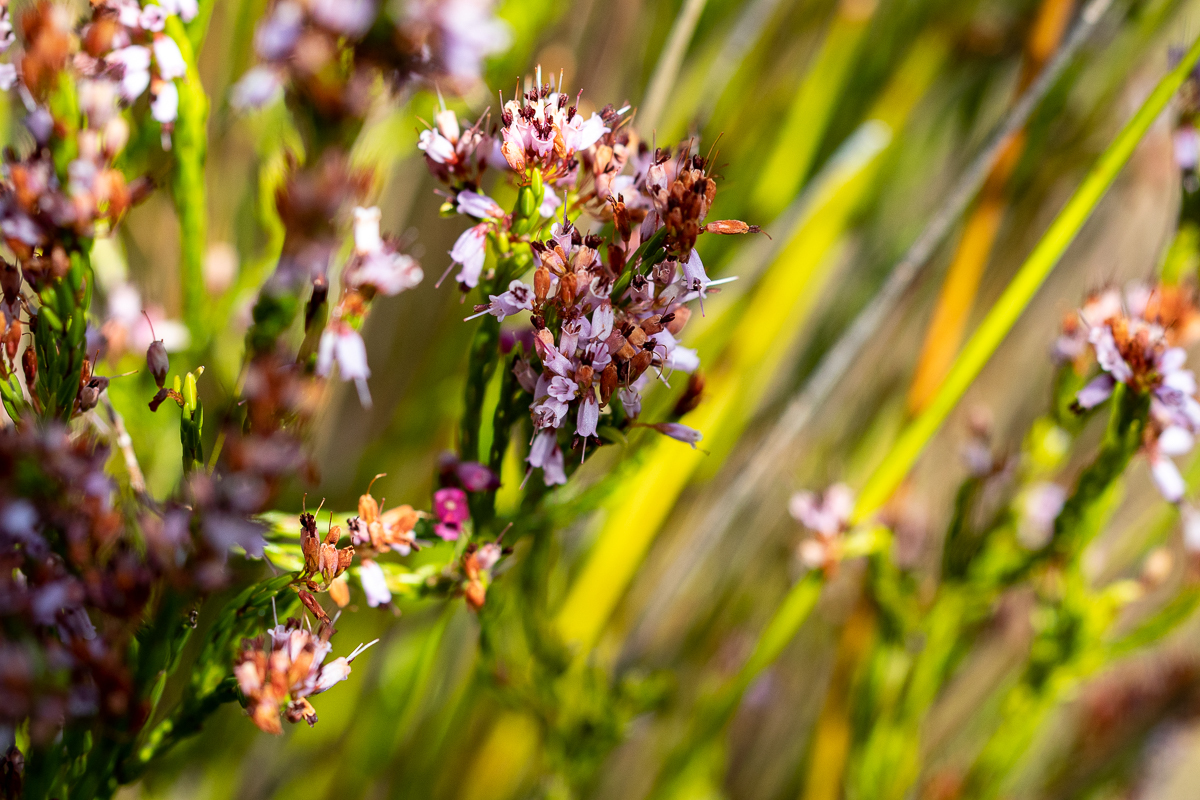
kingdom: Plantae
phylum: Tracheophyta
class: Magnoliopsida
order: Ericales
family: Ericaceae
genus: Erica
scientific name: Erica equisetifolia
